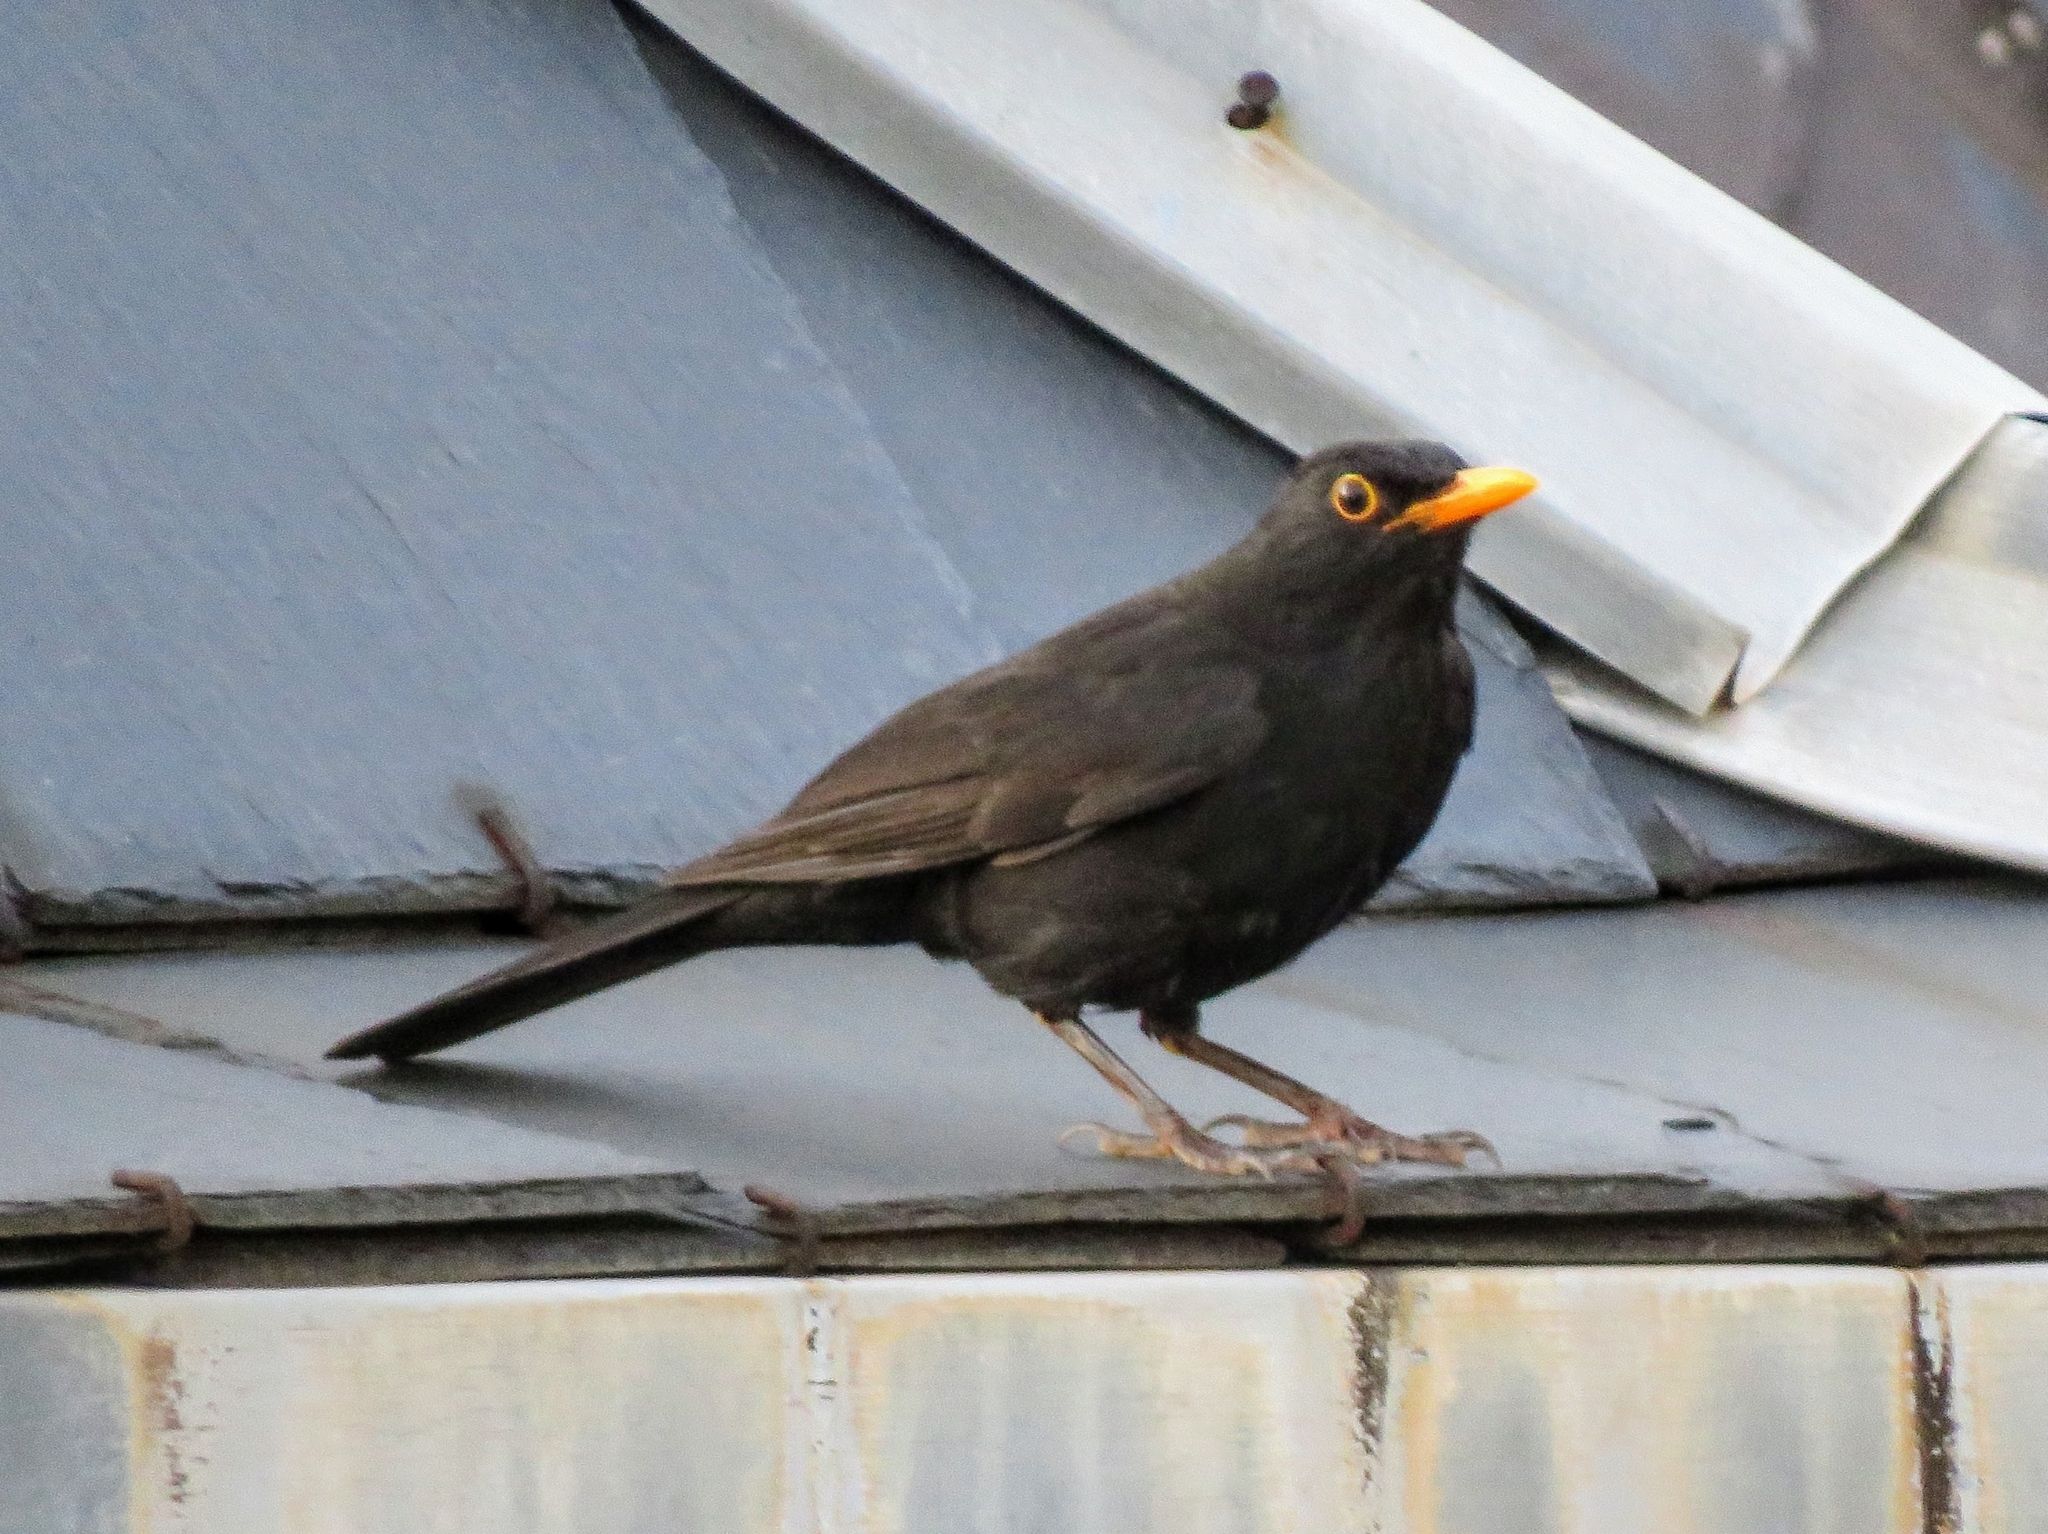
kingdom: Animalia
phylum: Chordata
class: Aves
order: Passeriformes
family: Turdidae
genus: Turdus
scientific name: Turdus merula
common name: Common blackbird
